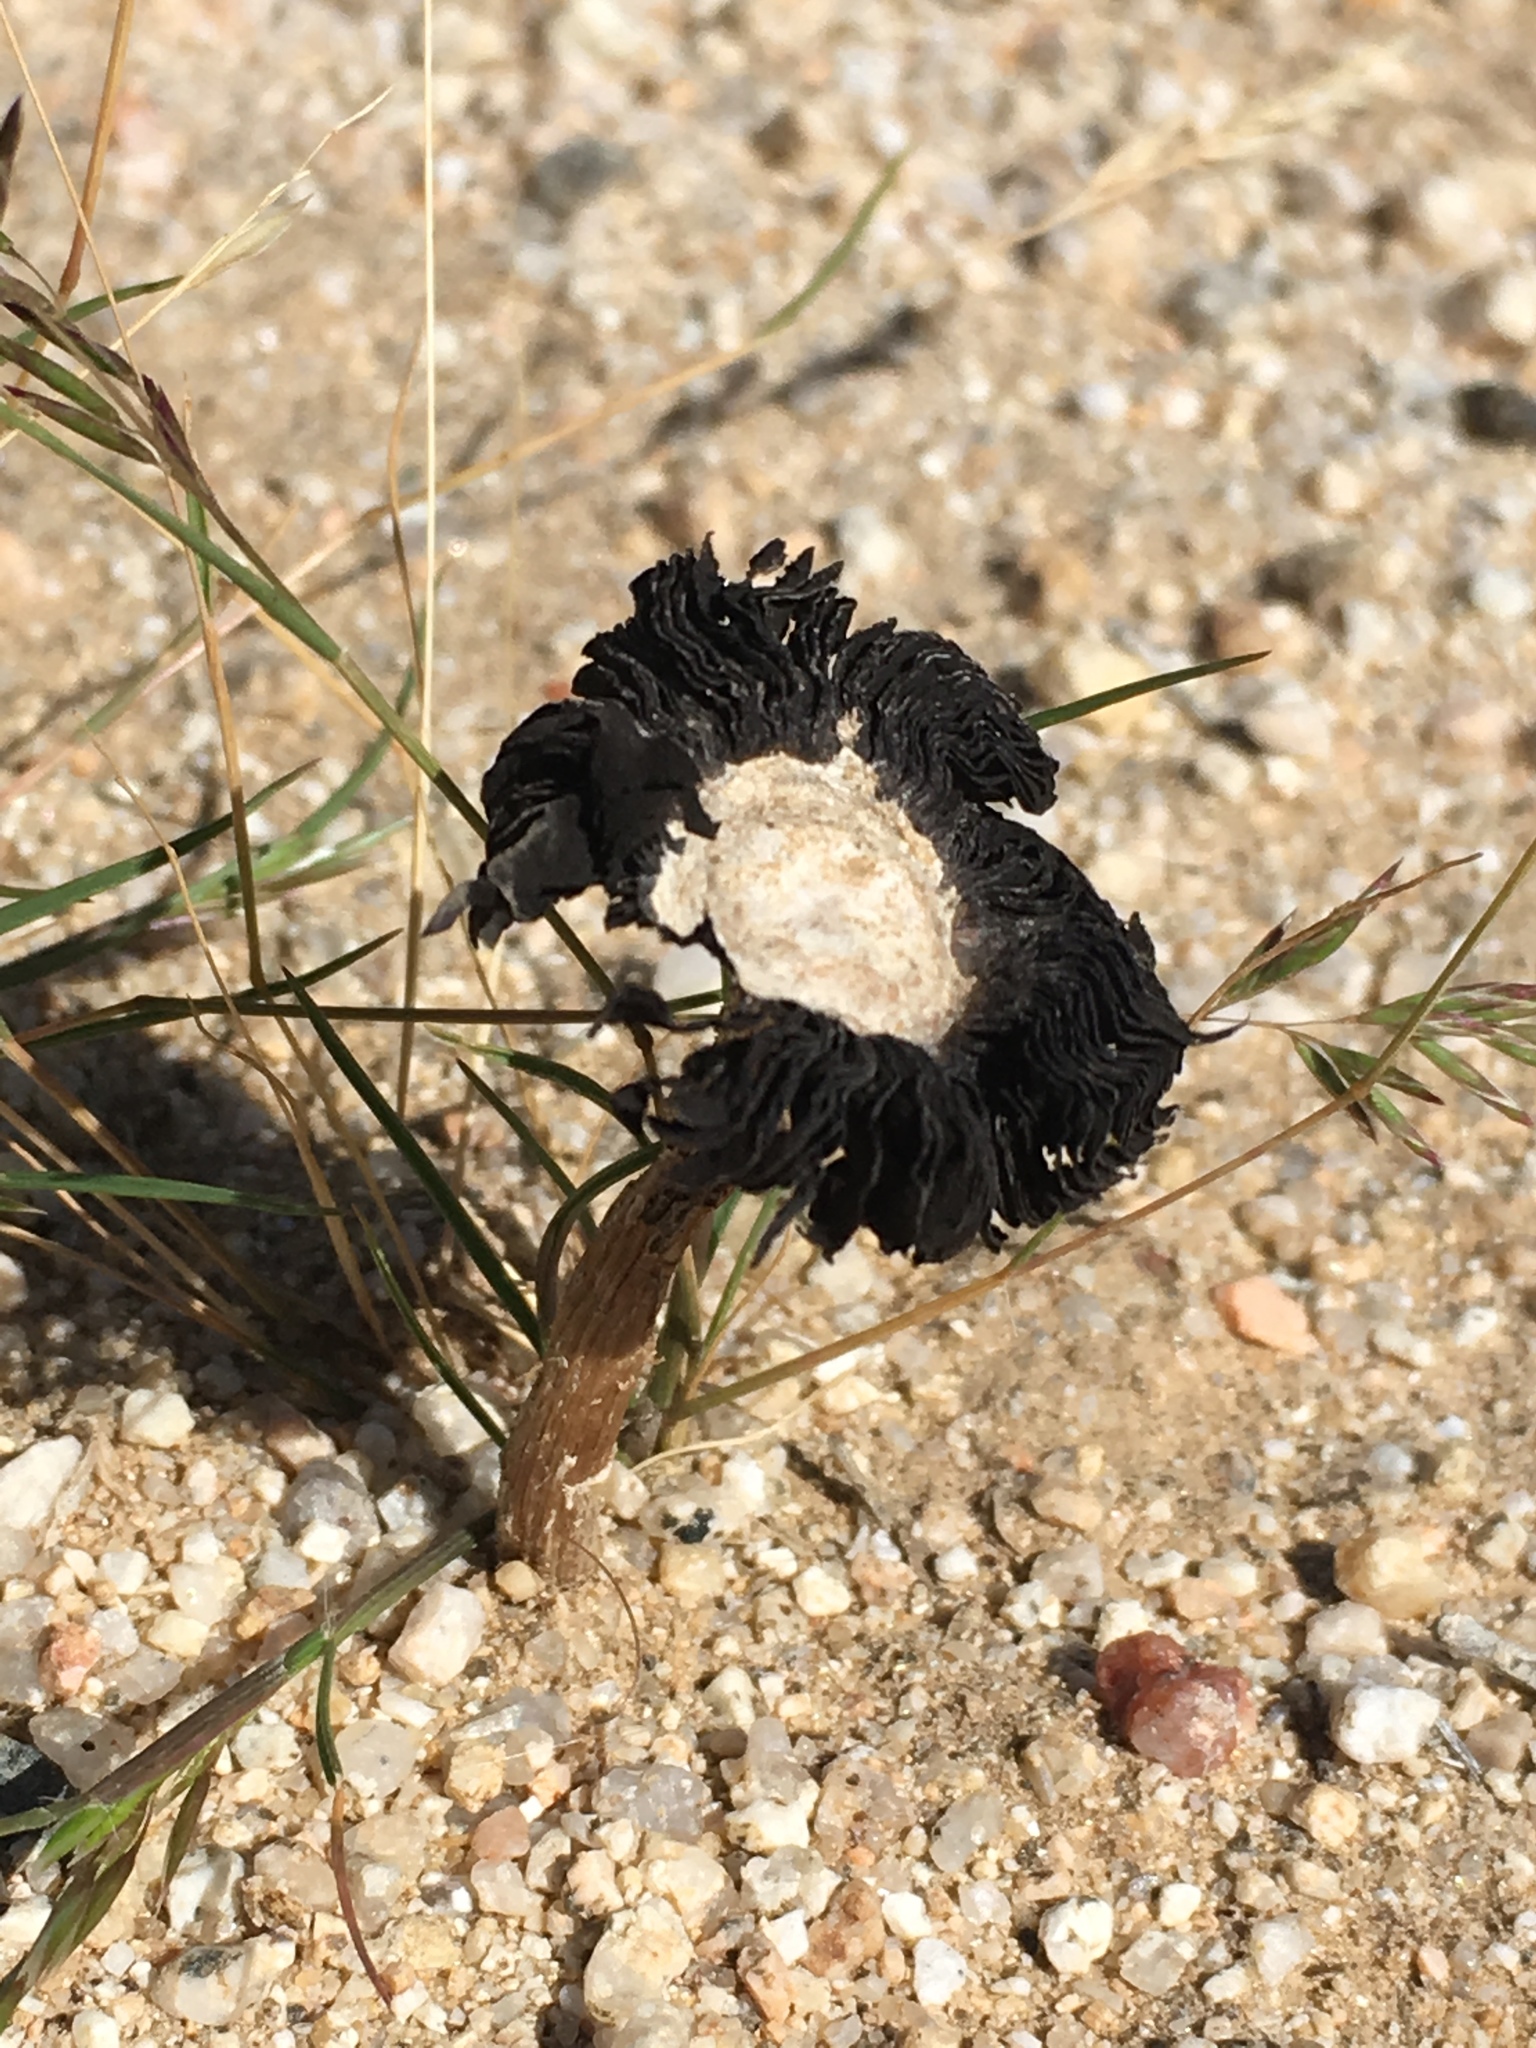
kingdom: Fungi
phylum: Basidiomycota
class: Agaricomycetes
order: Agaricales
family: Agaricaceae
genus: Montagnea
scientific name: Montagnea arenaria
